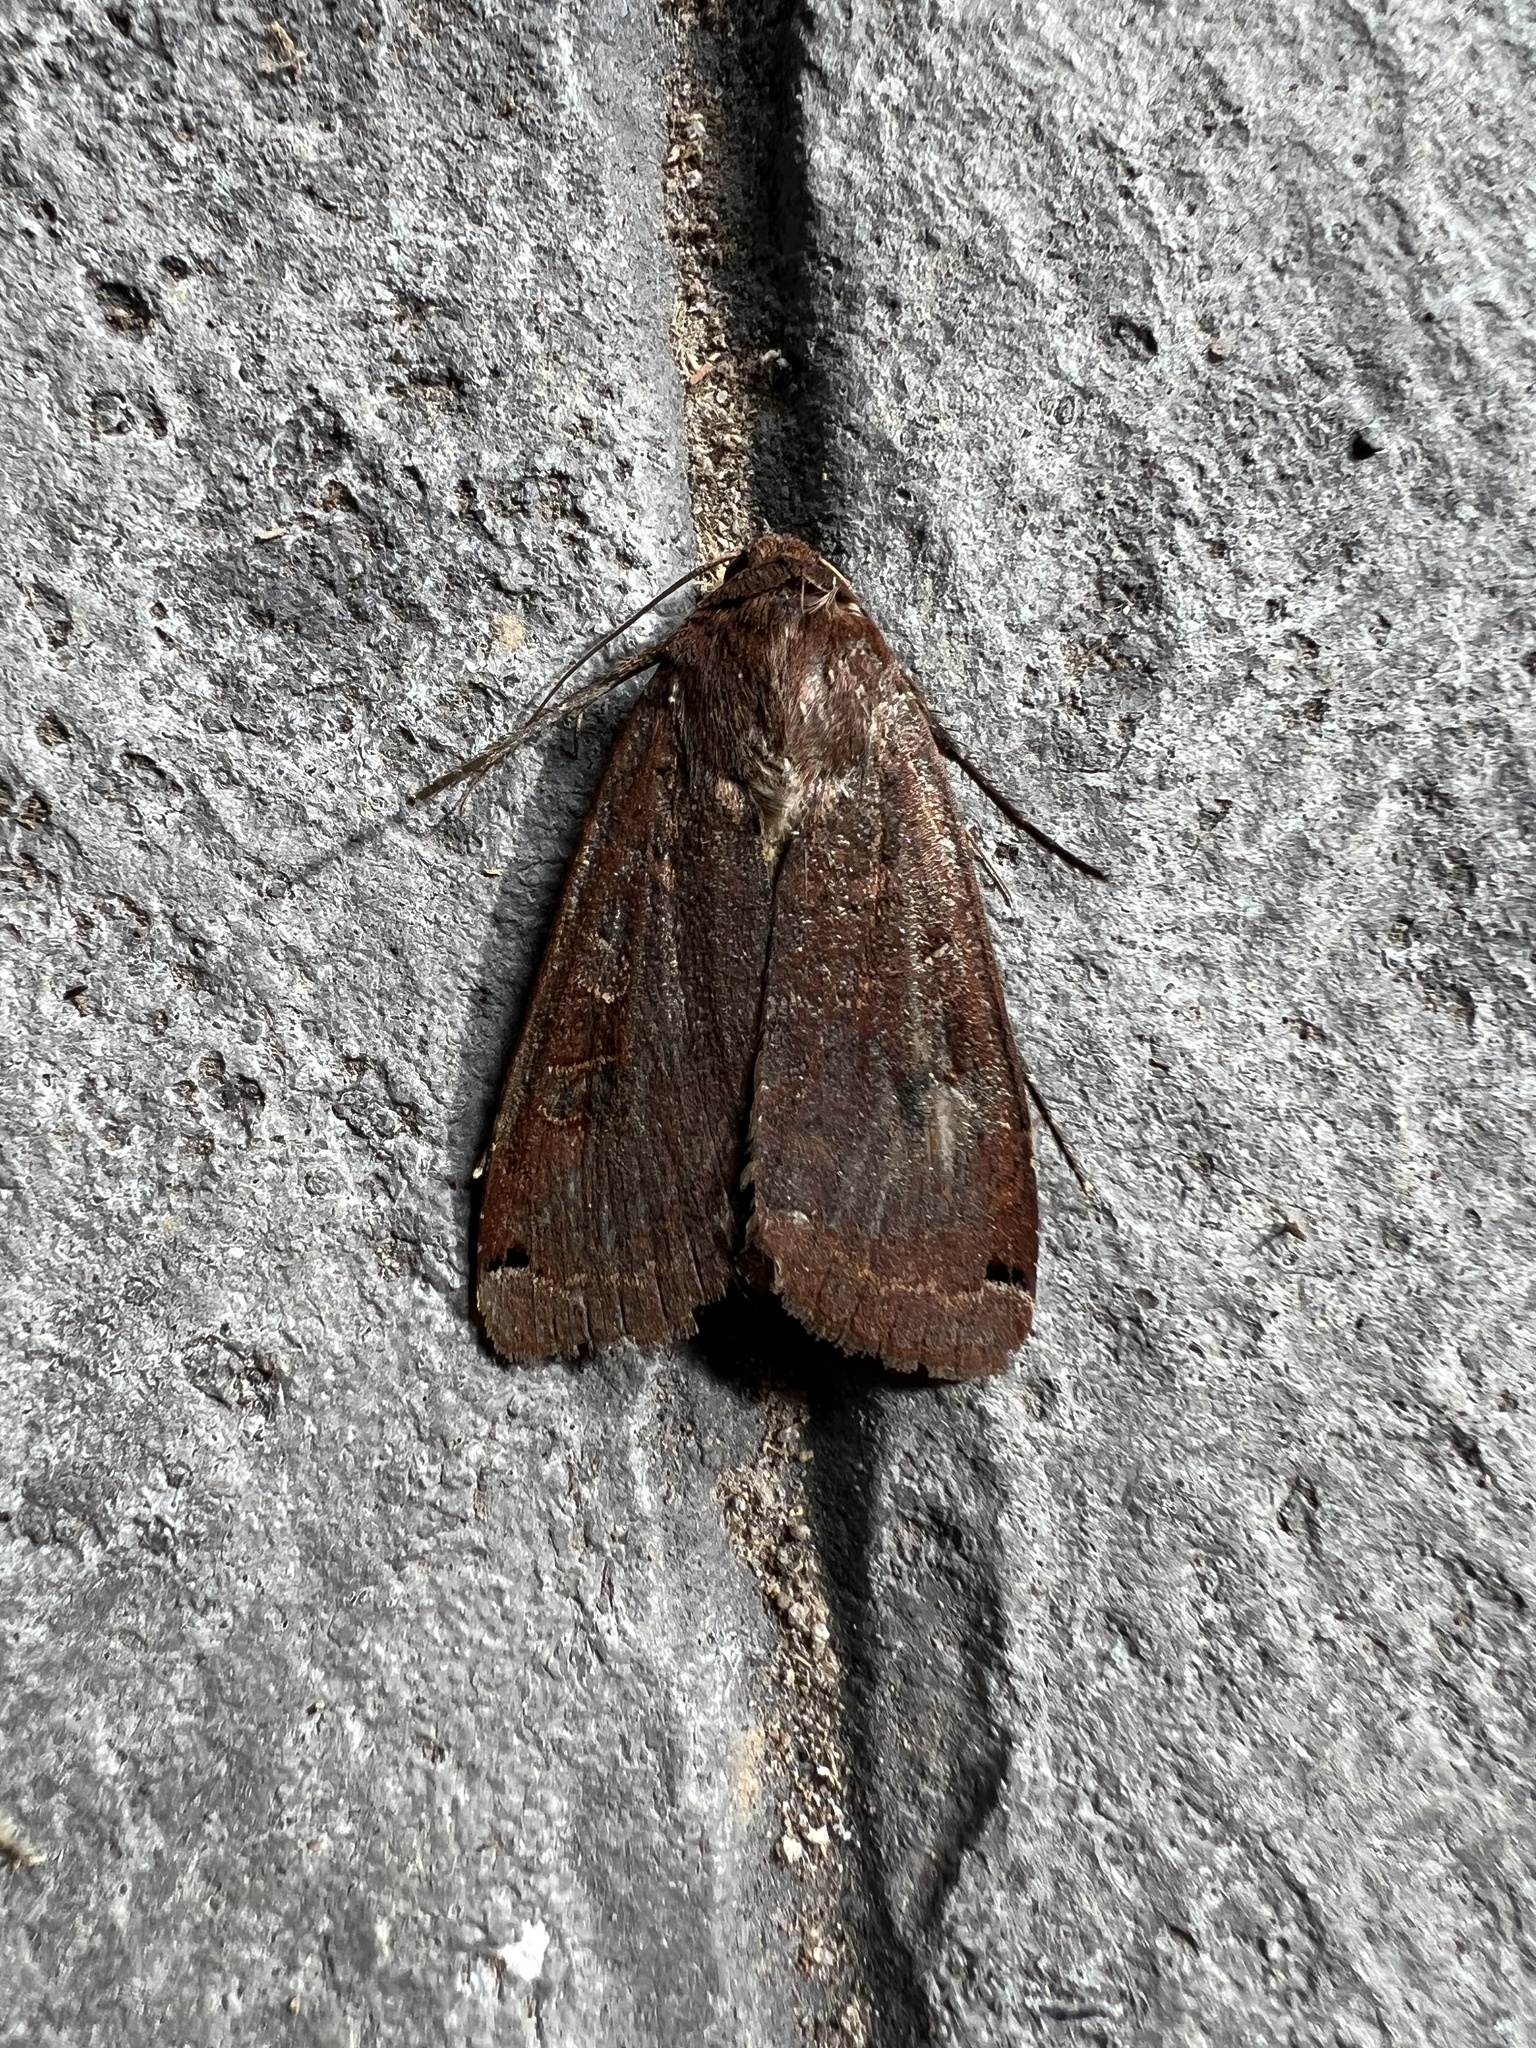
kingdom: Animalia
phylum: Arthropoda
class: Insecta
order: Lepidoptera
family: Noctuidae
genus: Noctua
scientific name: Noctua pronuba
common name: Large yellow underwing
